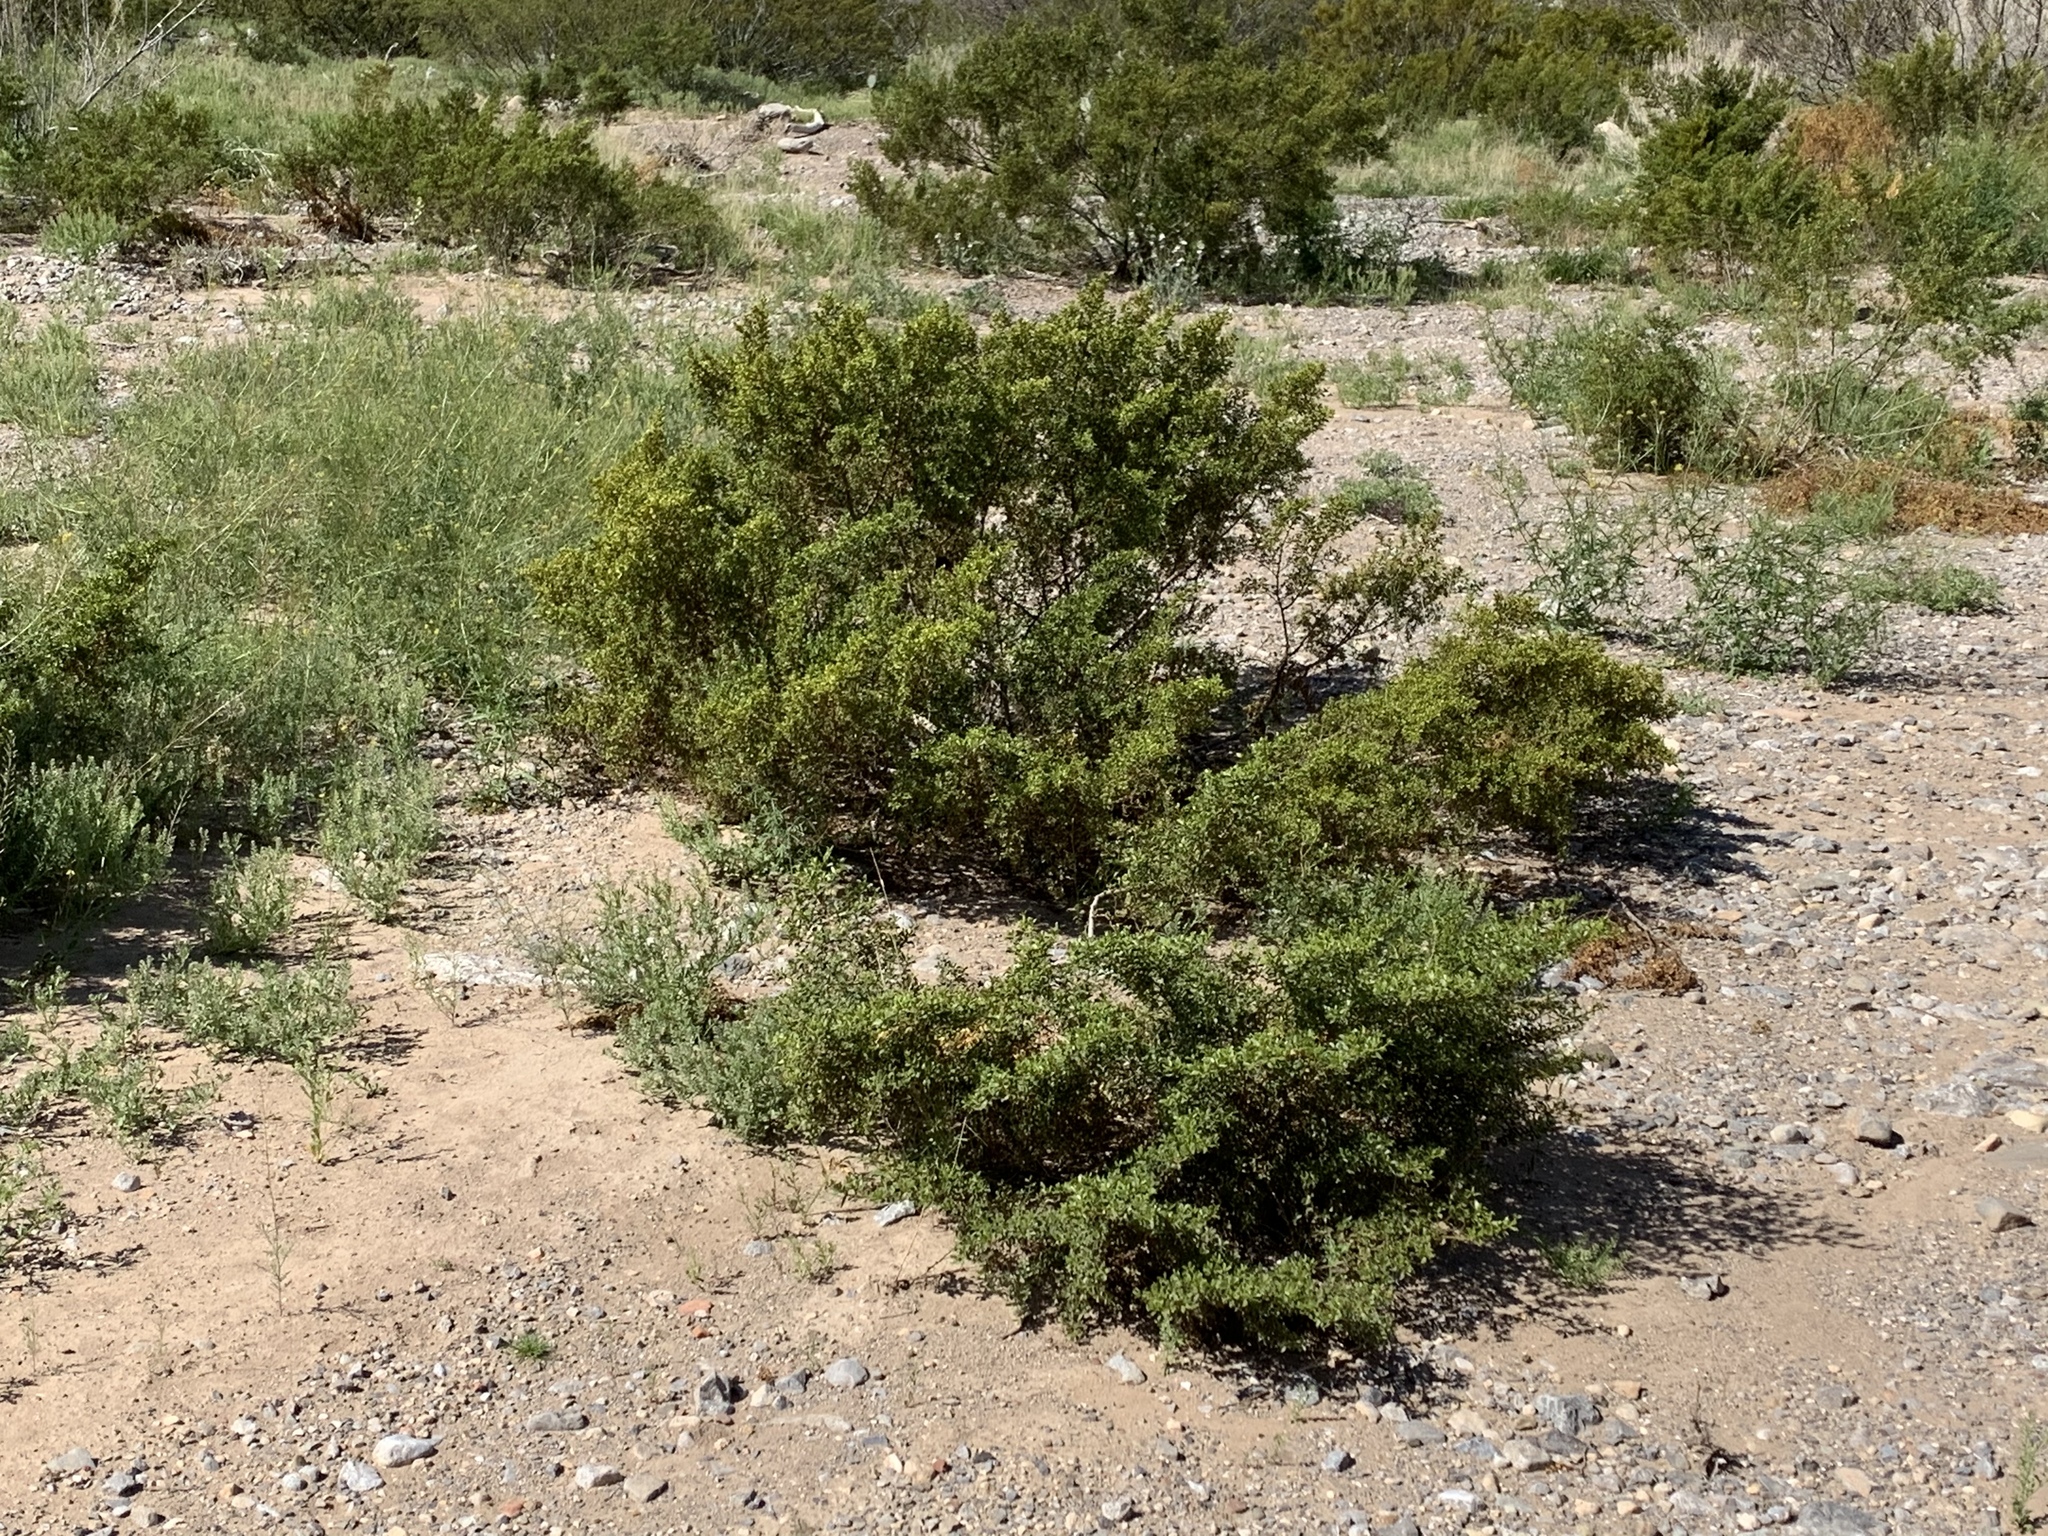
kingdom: Plantae
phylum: Tracheophyta
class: Magnoliopsida
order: Zygophyllales
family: Zygophyllaceae
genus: Larrea
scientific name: Larrea tridentata
